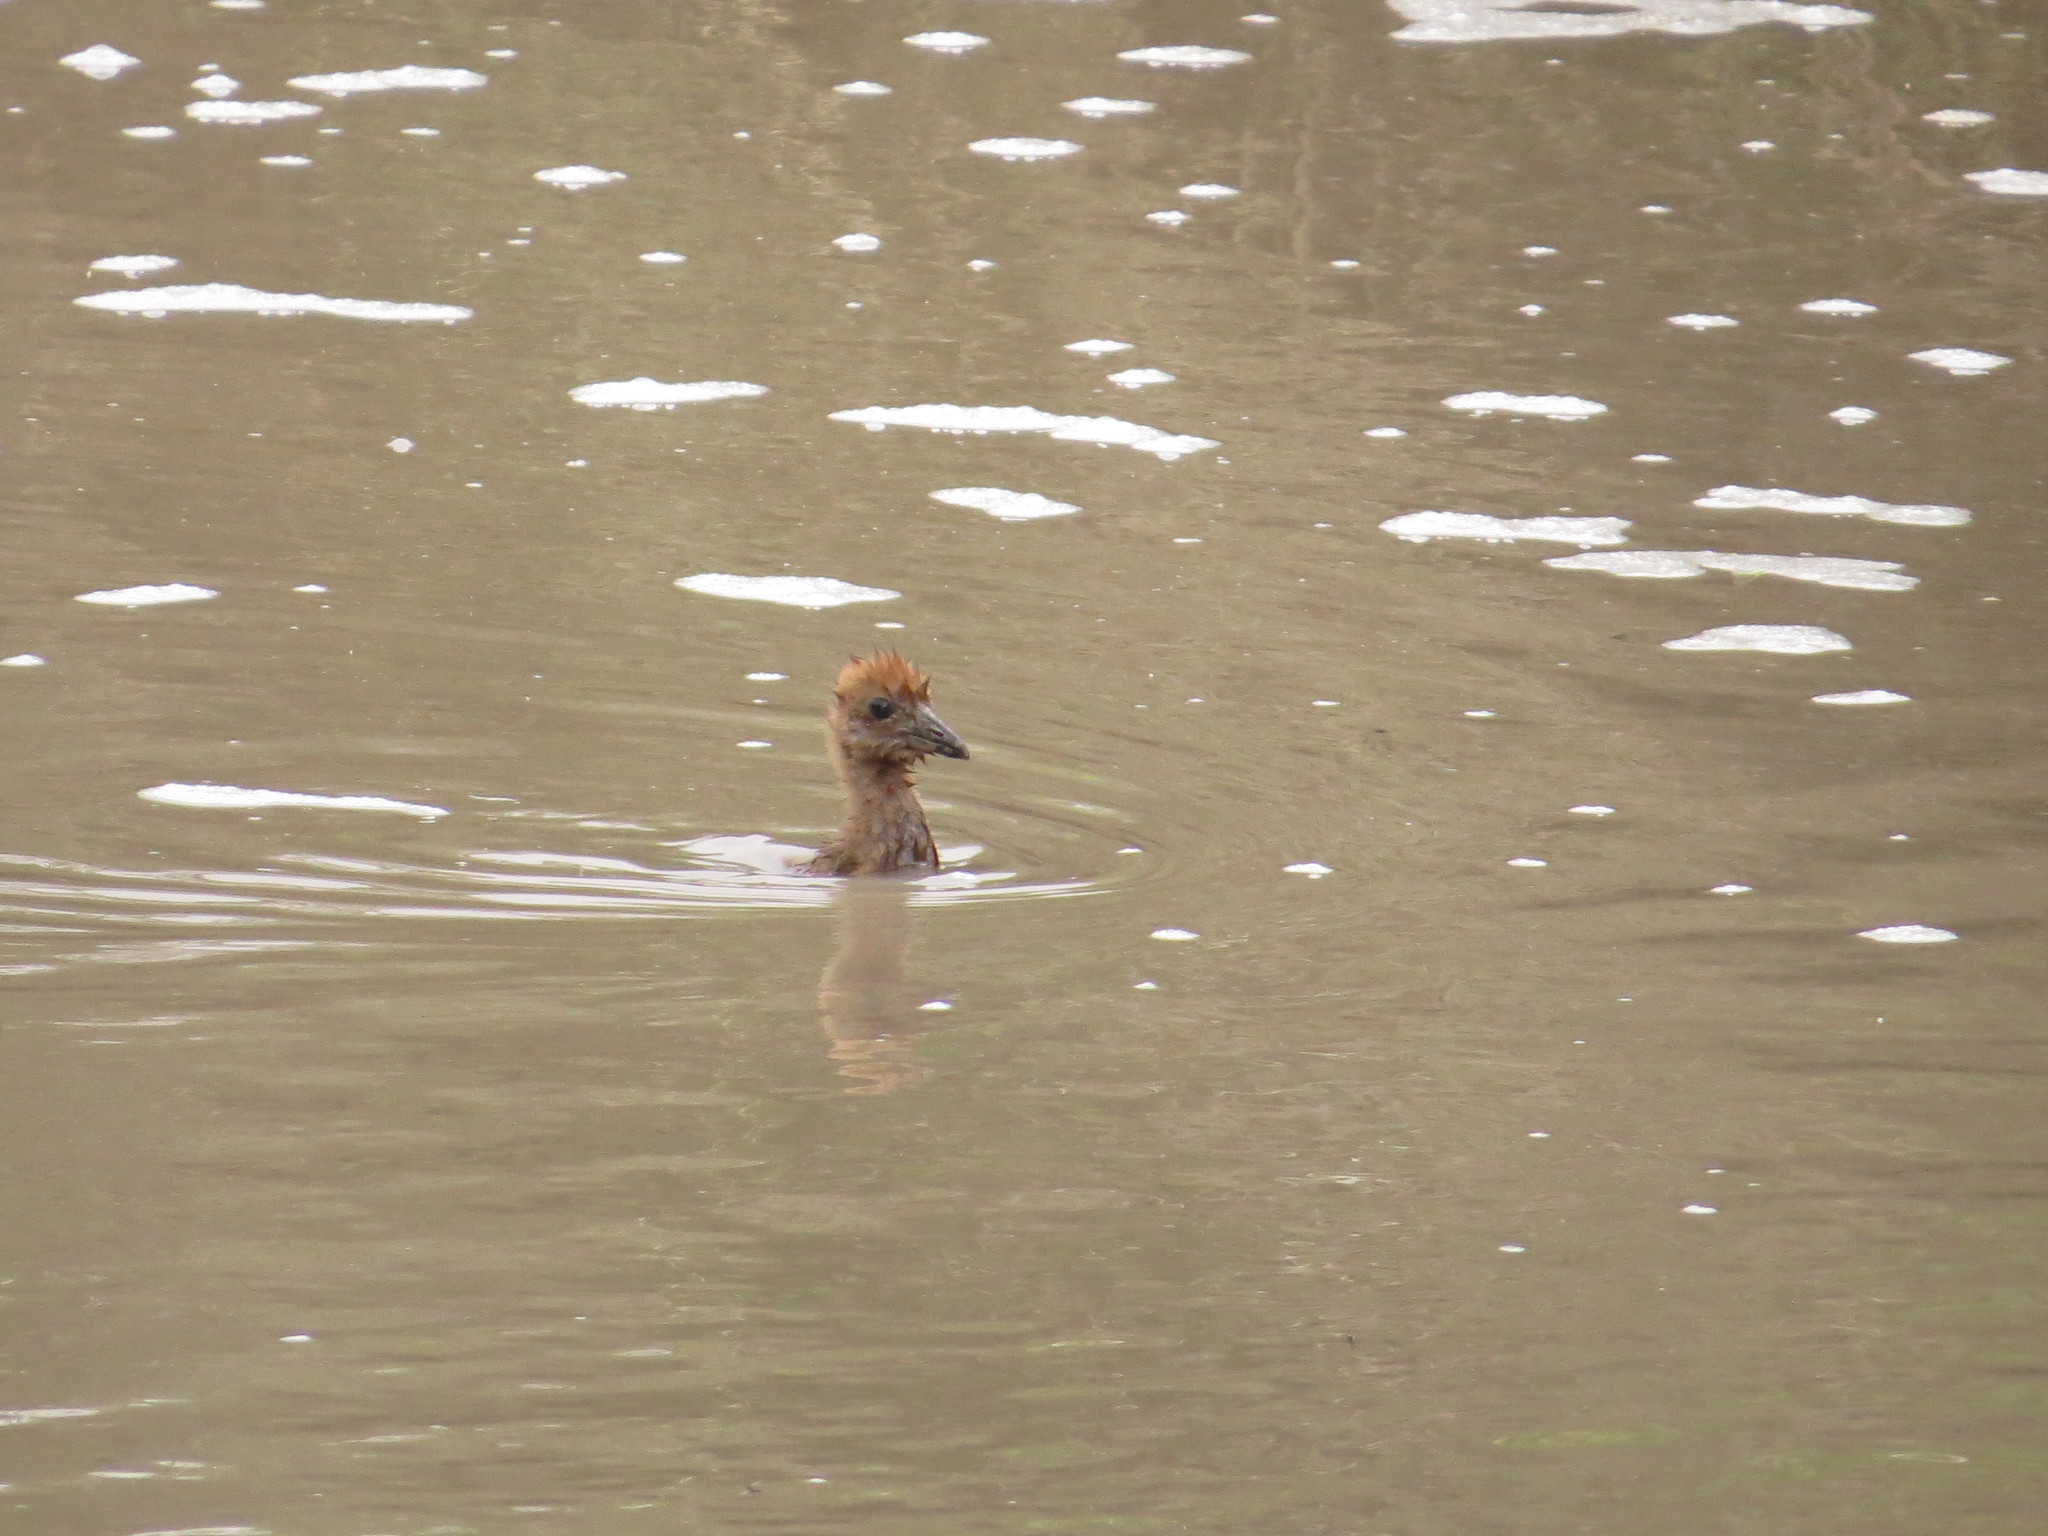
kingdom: Animalia
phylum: Chordata
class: Aves
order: Gruiformes
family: Rallidae
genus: Aramides
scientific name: Aramides ypecaha
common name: Giant wood rail
